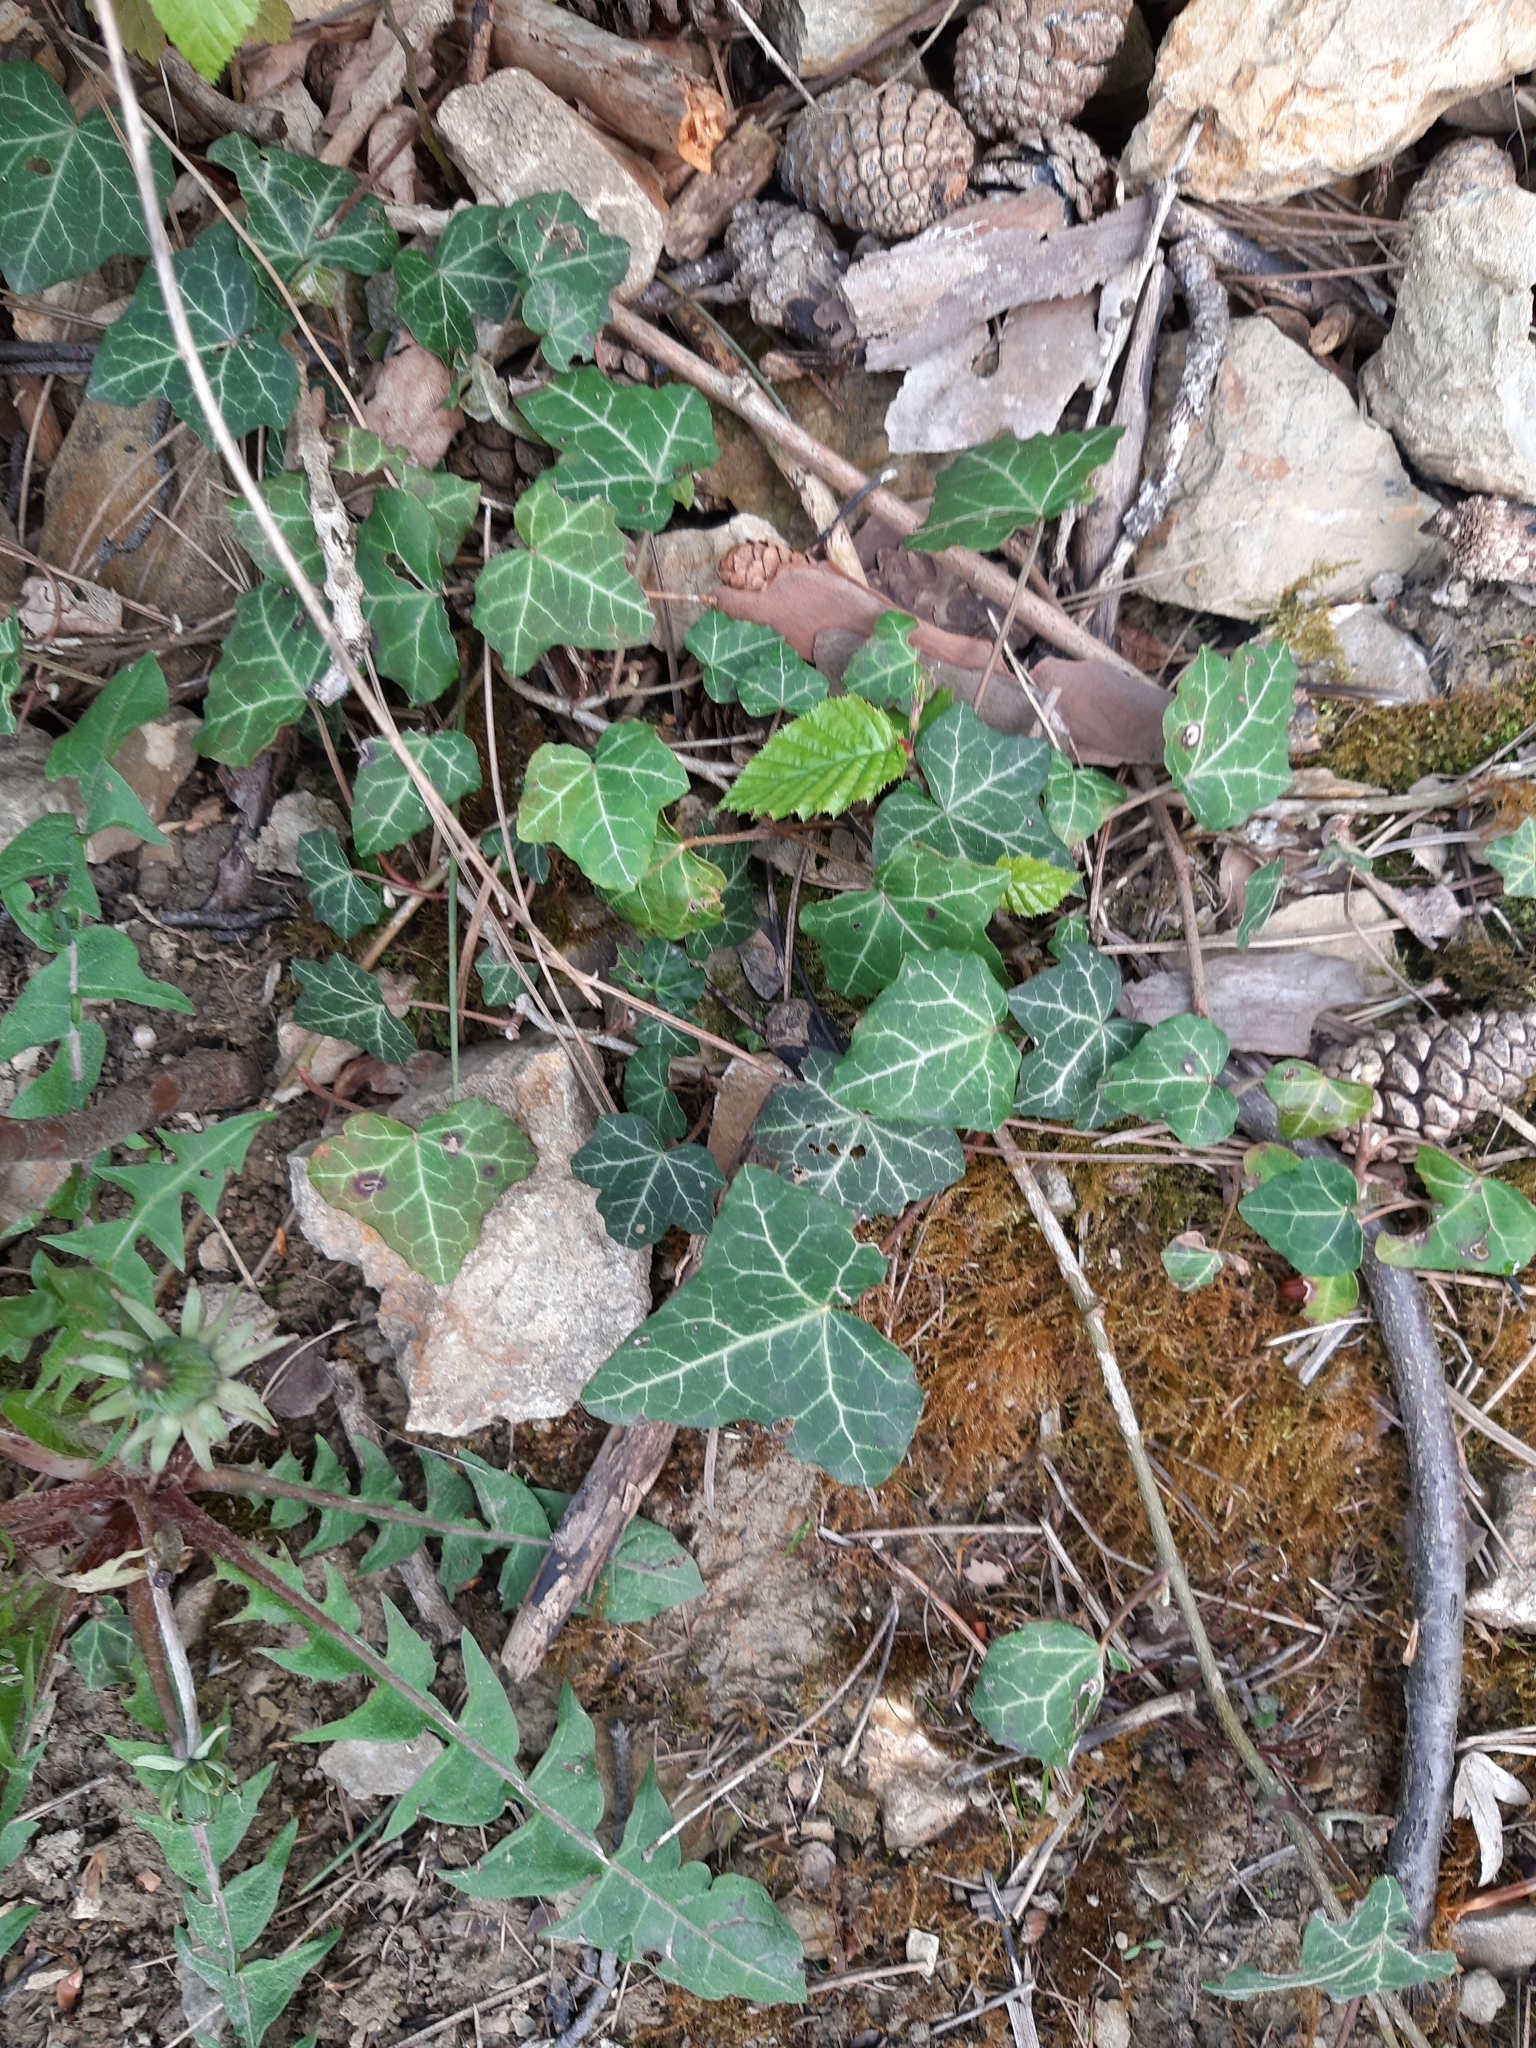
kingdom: Plantae
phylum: Tracheophyta
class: Magnoliopsida
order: Apiales
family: Araliaceae
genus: Hedera
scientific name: Hedera helix
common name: Ivy
